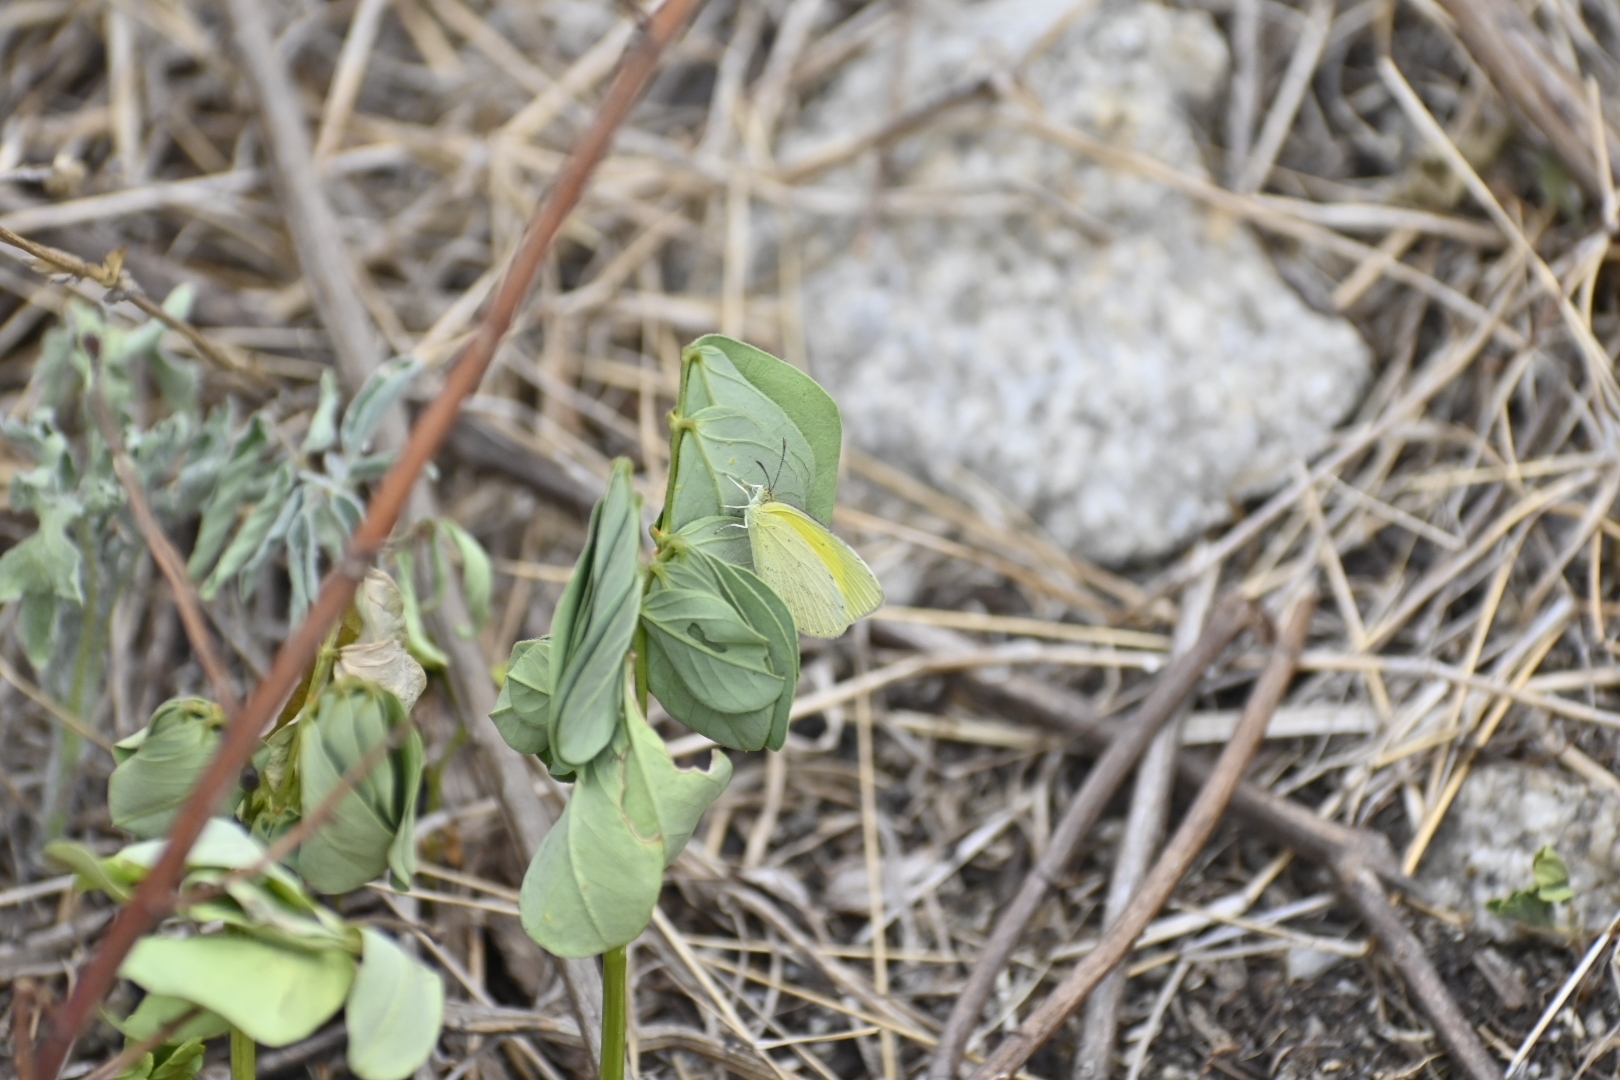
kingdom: Animalia
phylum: Arthropoda
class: Insecta
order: Lepidoptera
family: Pieridae
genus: Eurema
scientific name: Eurema laeta
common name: Spotless grass yellow
